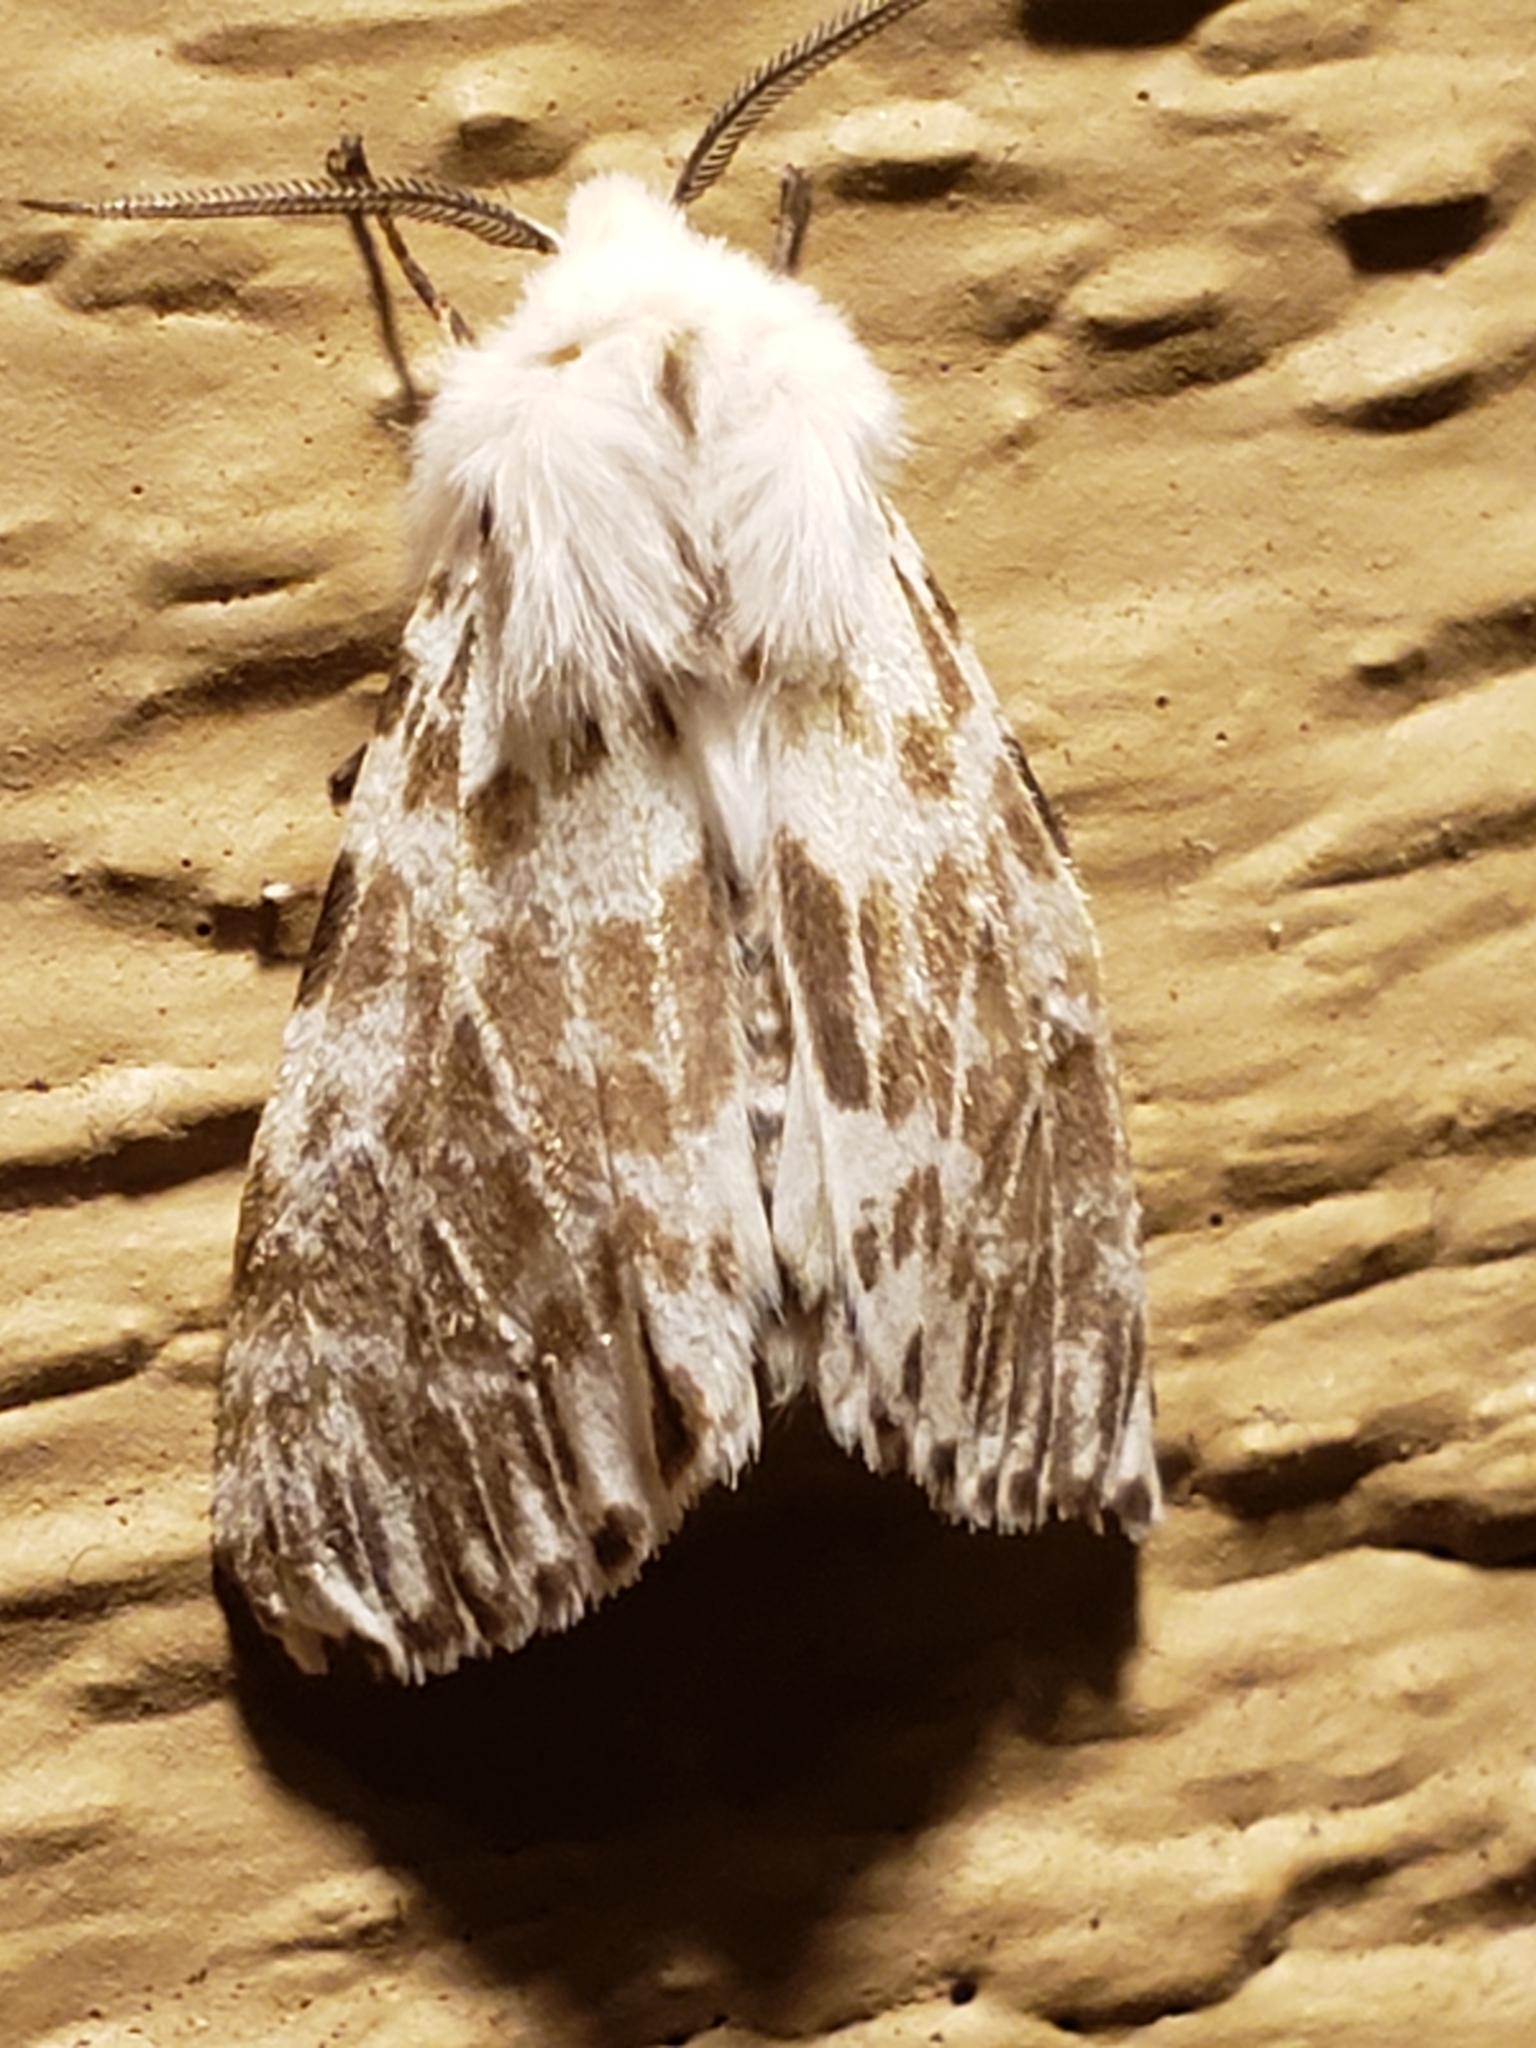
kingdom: Animalia
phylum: Arthropoda
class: Insecta
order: Lepidoptera
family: Erebidae
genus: Hyphantria
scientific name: Hyphantria cunea
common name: American white moth
